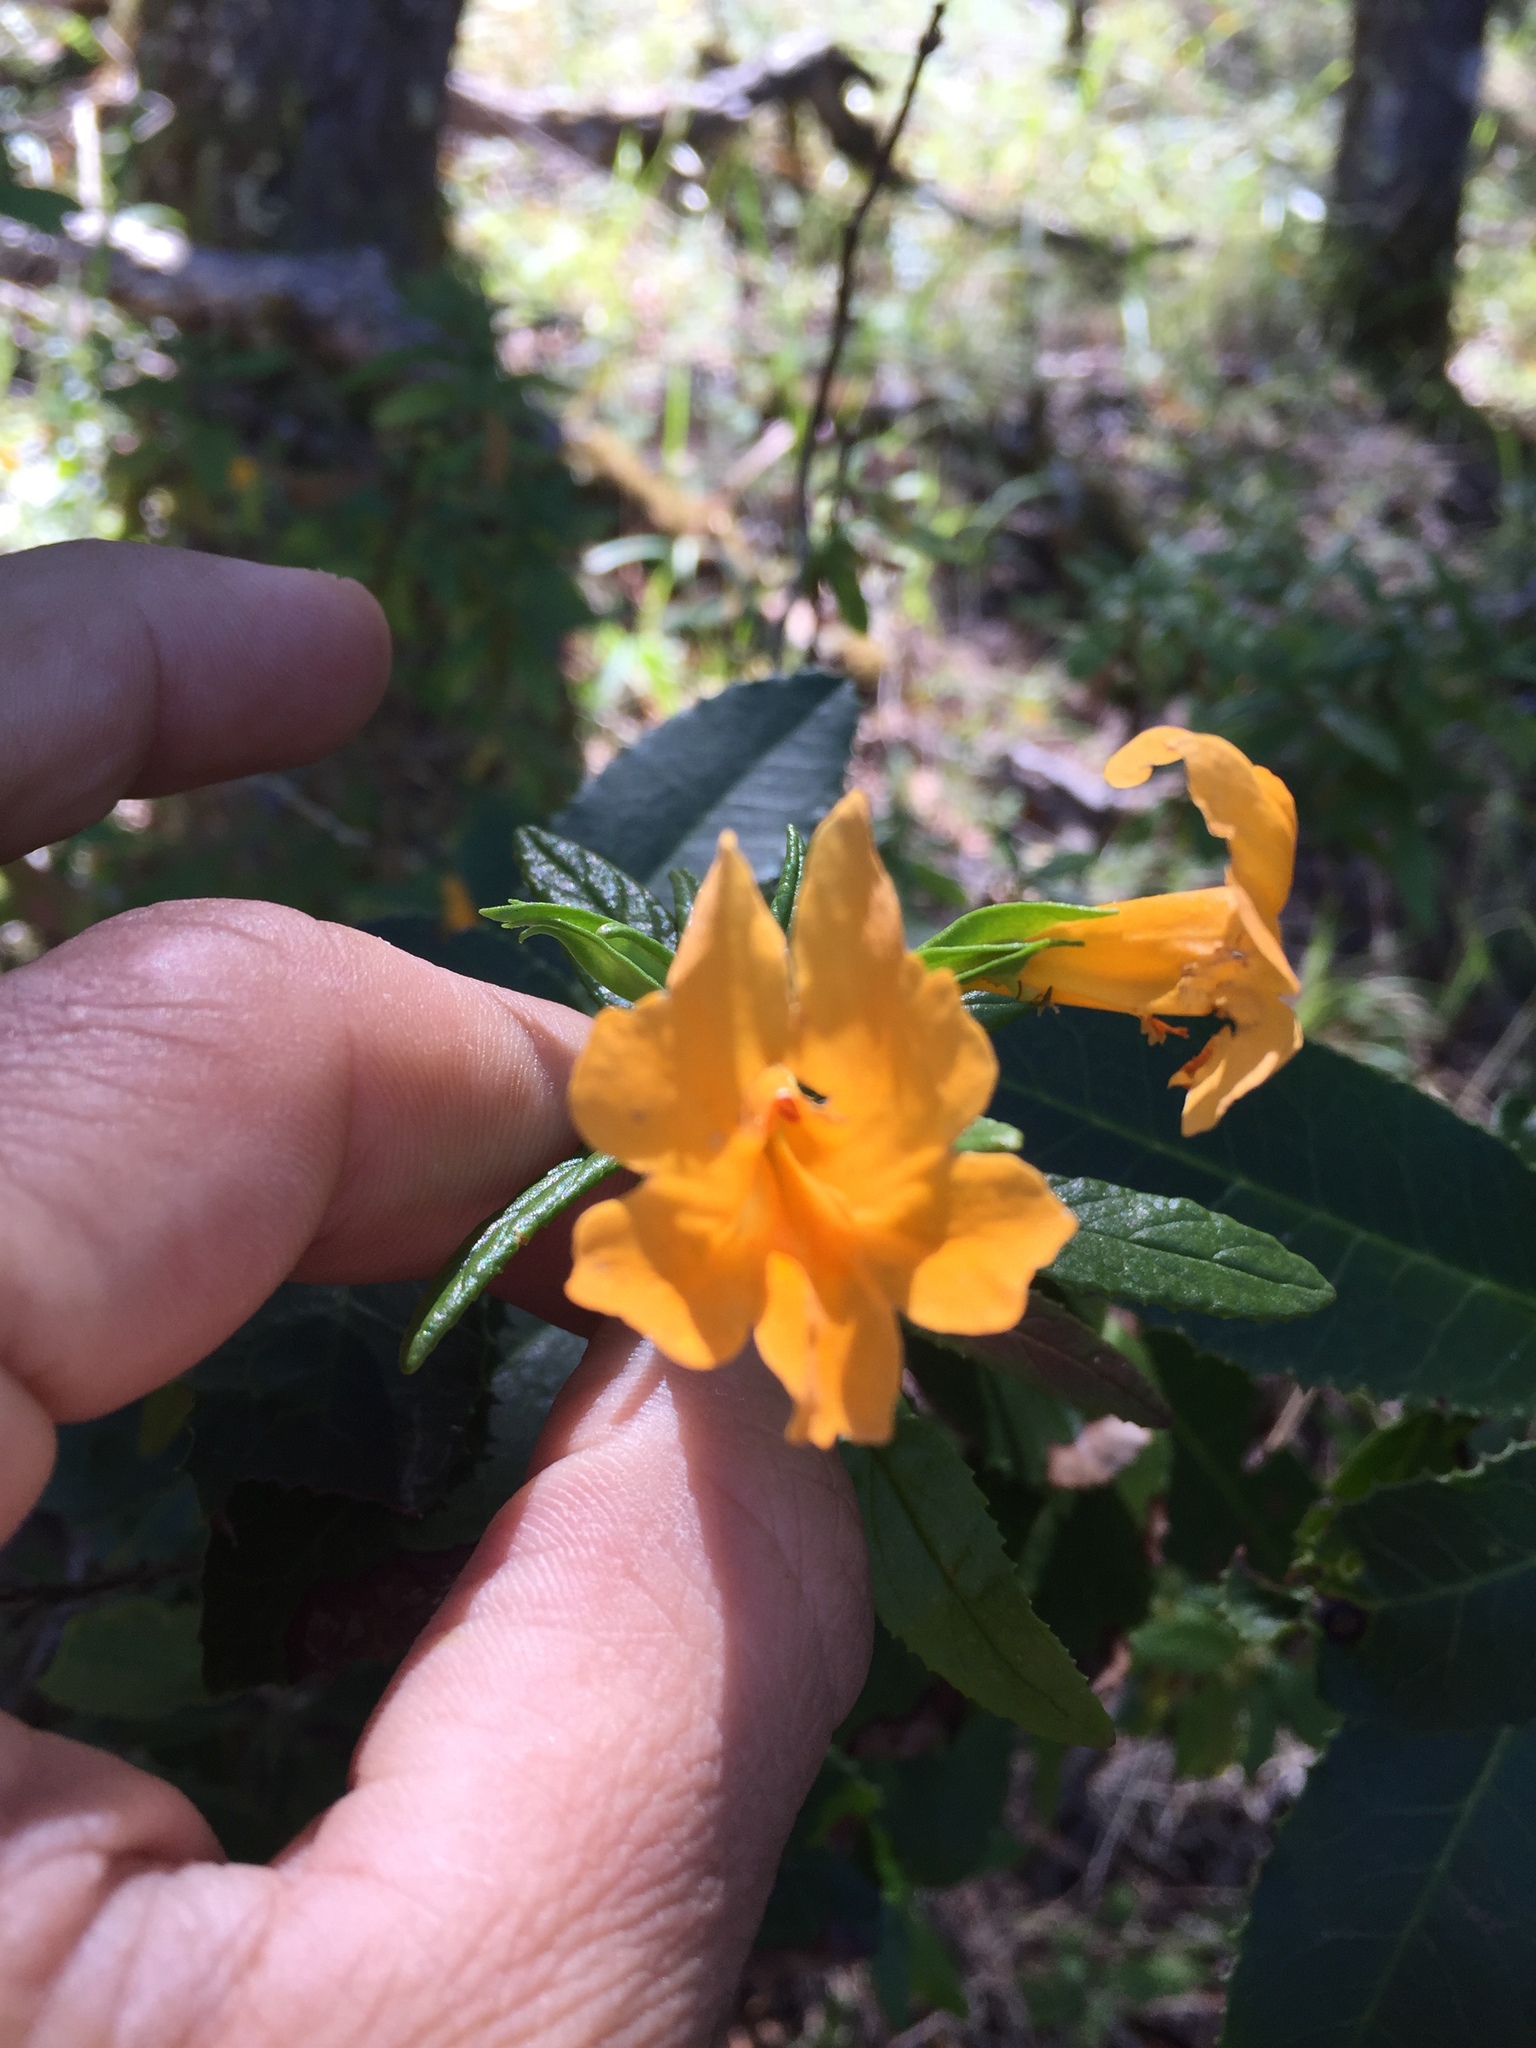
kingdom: Plantae
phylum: Tracheophyta
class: Magnoliopsida
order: Lamiales
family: Phrymaceae
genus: Diplacus
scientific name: Diplacus aurantiacus
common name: Bush monkey-flower
